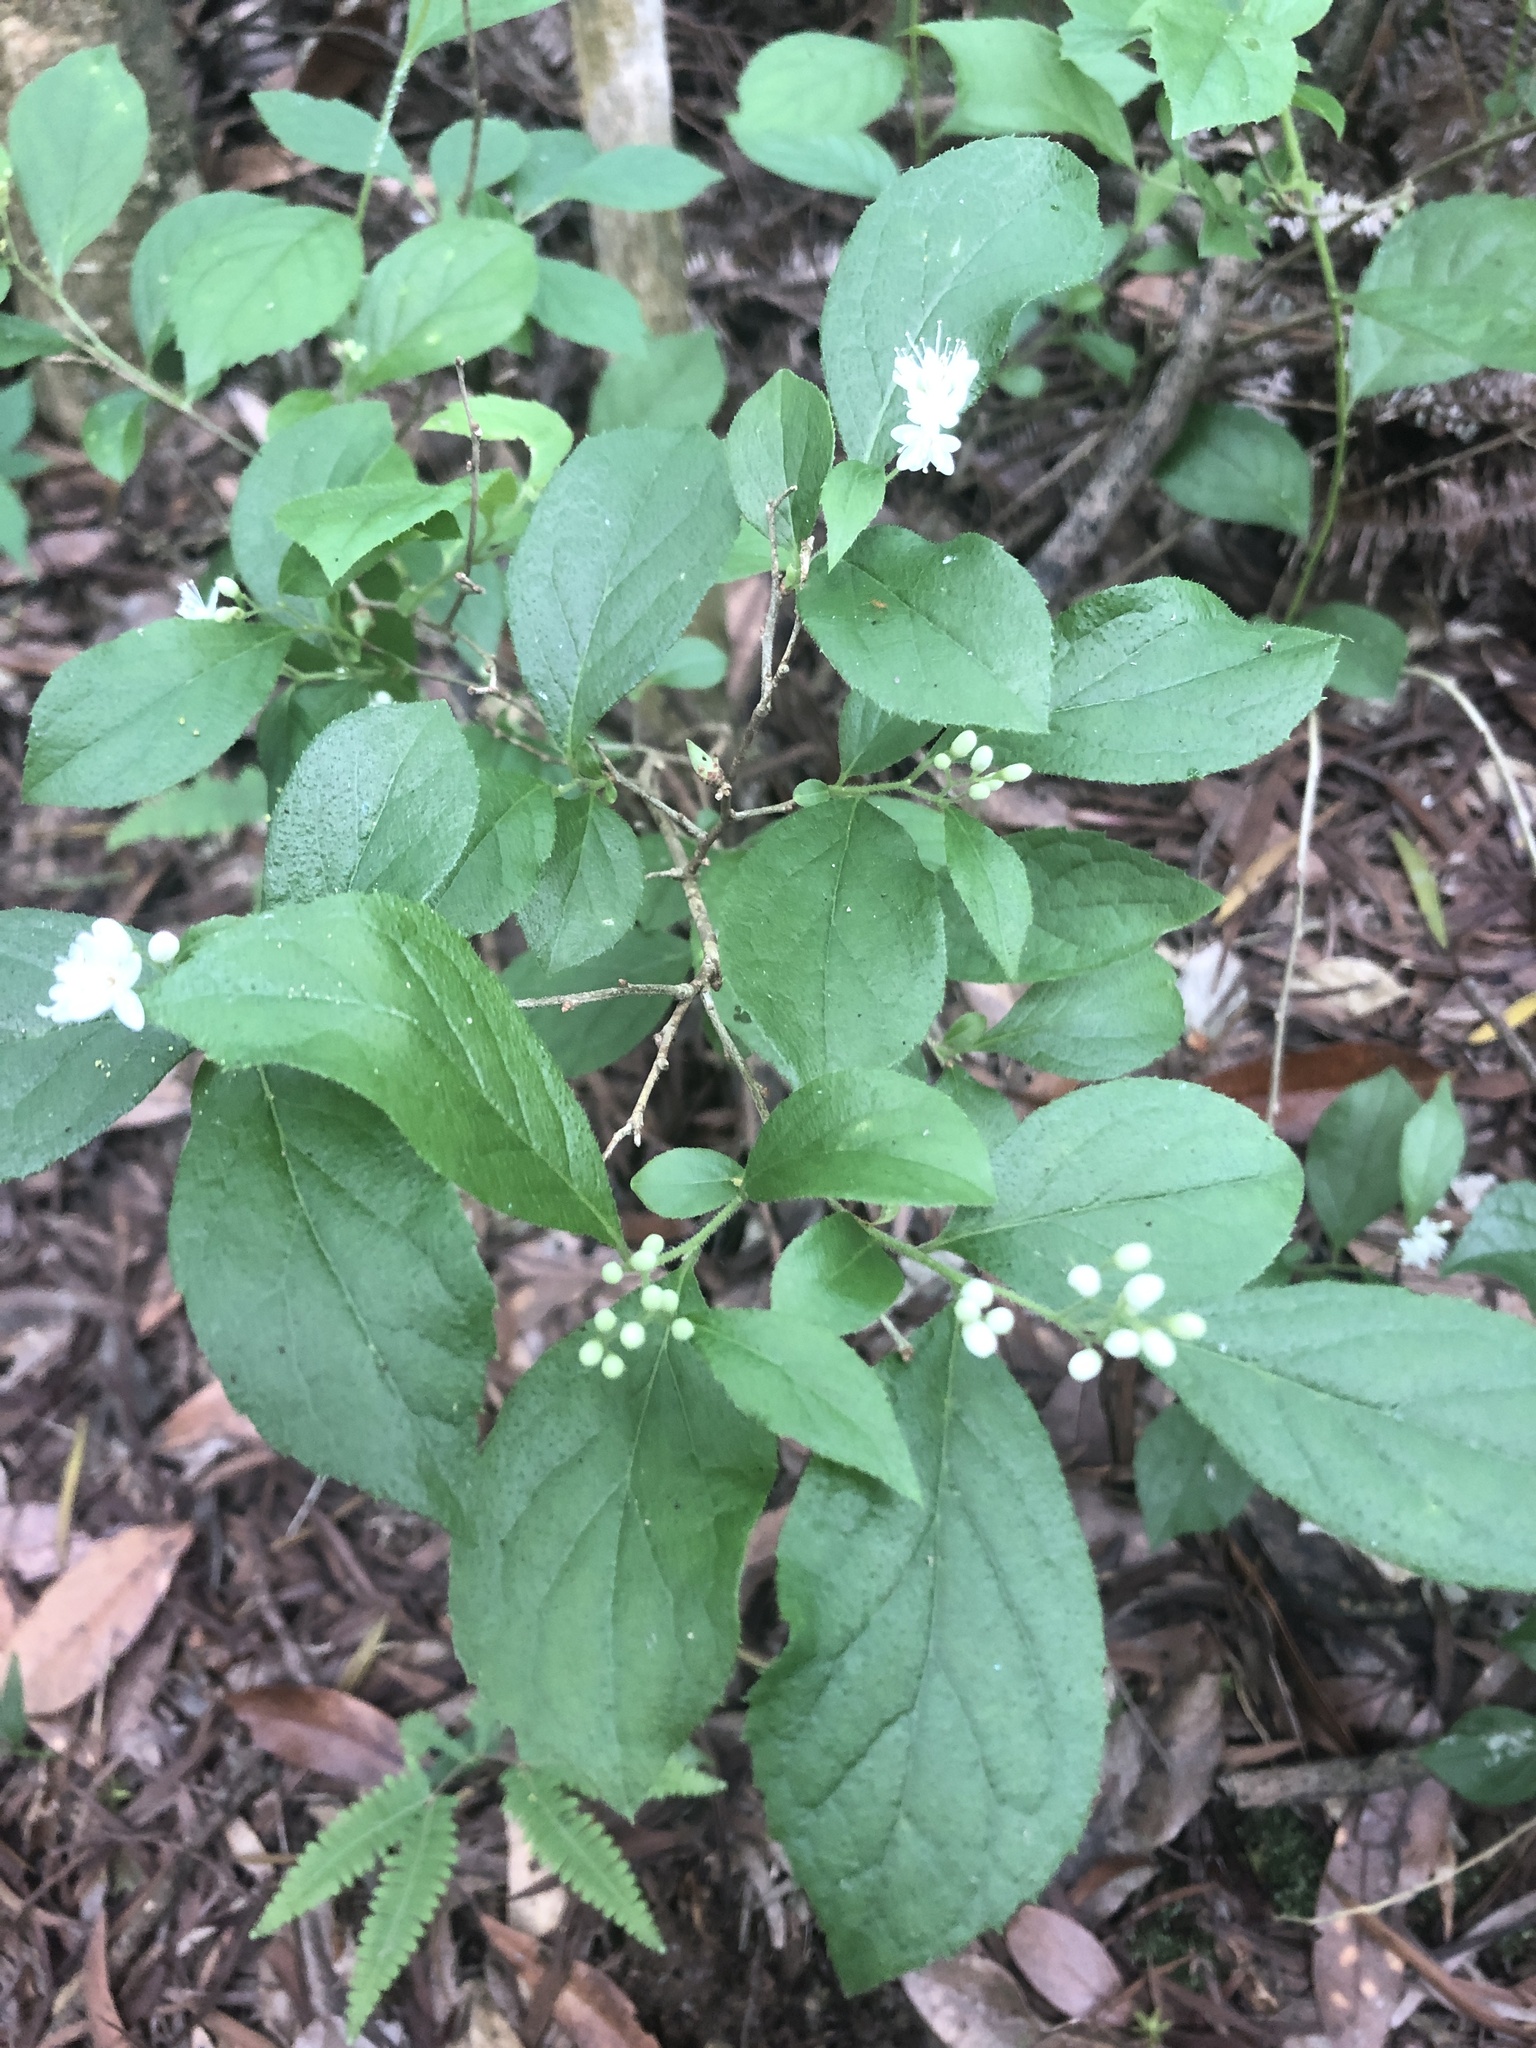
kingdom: Plantae
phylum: Tracheophyta
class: Magnoliopsida
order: Ericales
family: Symplocaceae
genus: Symplocos
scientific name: Symplocos paniculata
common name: Sapphire-berry
